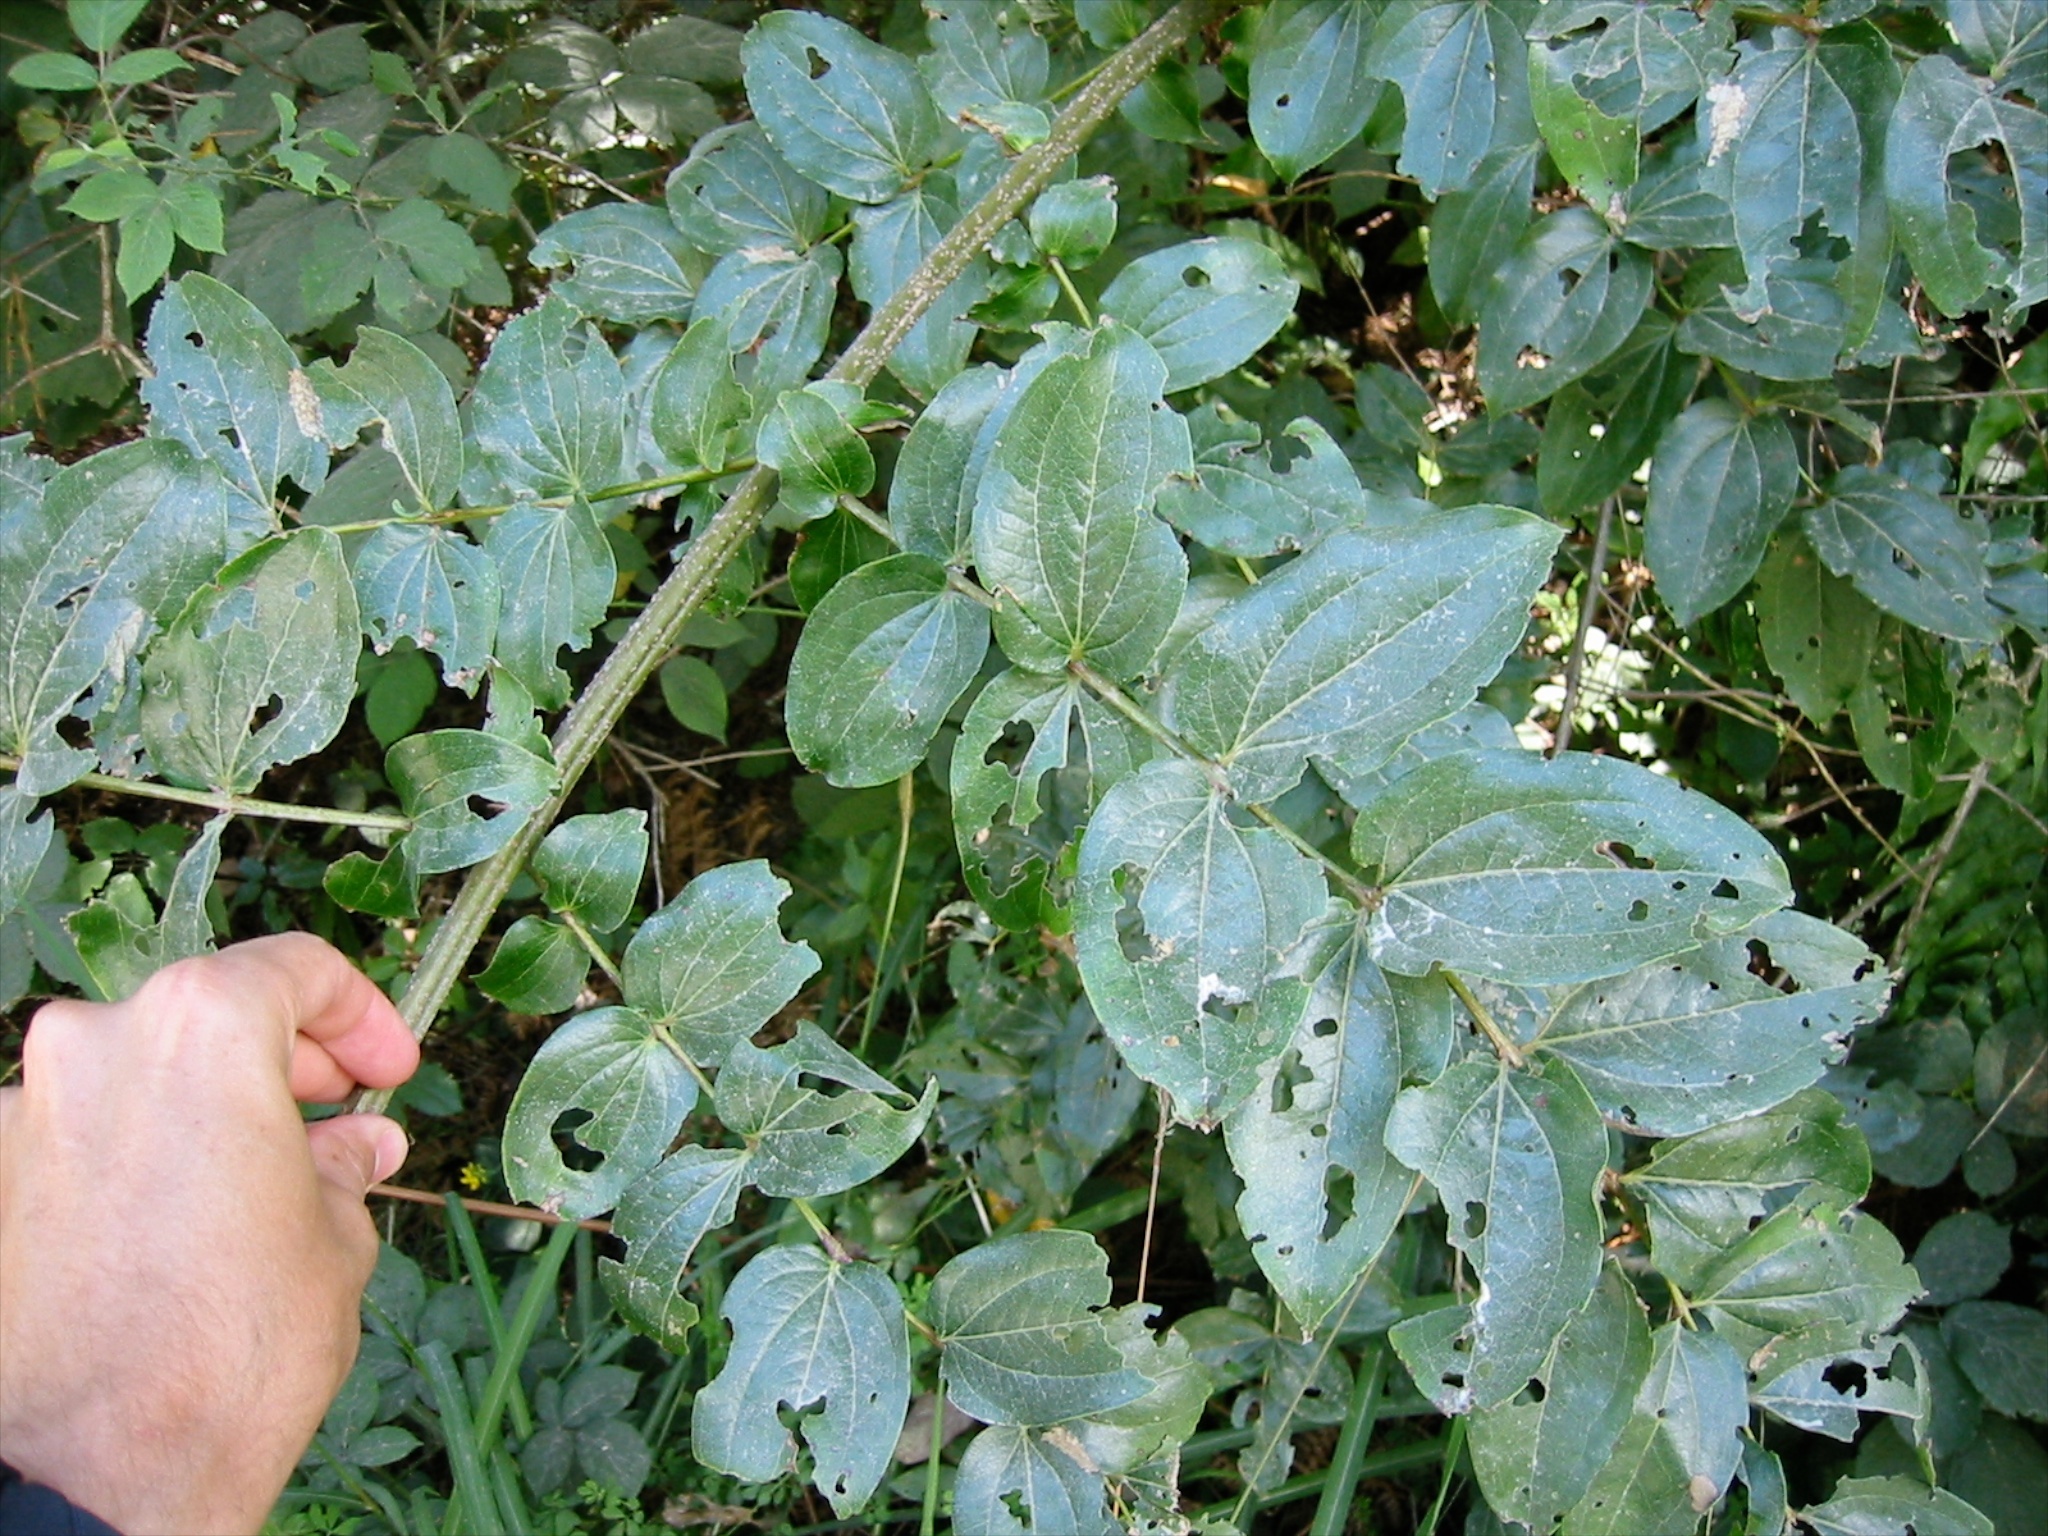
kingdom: Plantae
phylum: Tracheophyta
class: Magnoliopsida
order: Cucurbitales
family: Coriariaceae
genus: Coriaria
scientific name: Coriaria arborea
